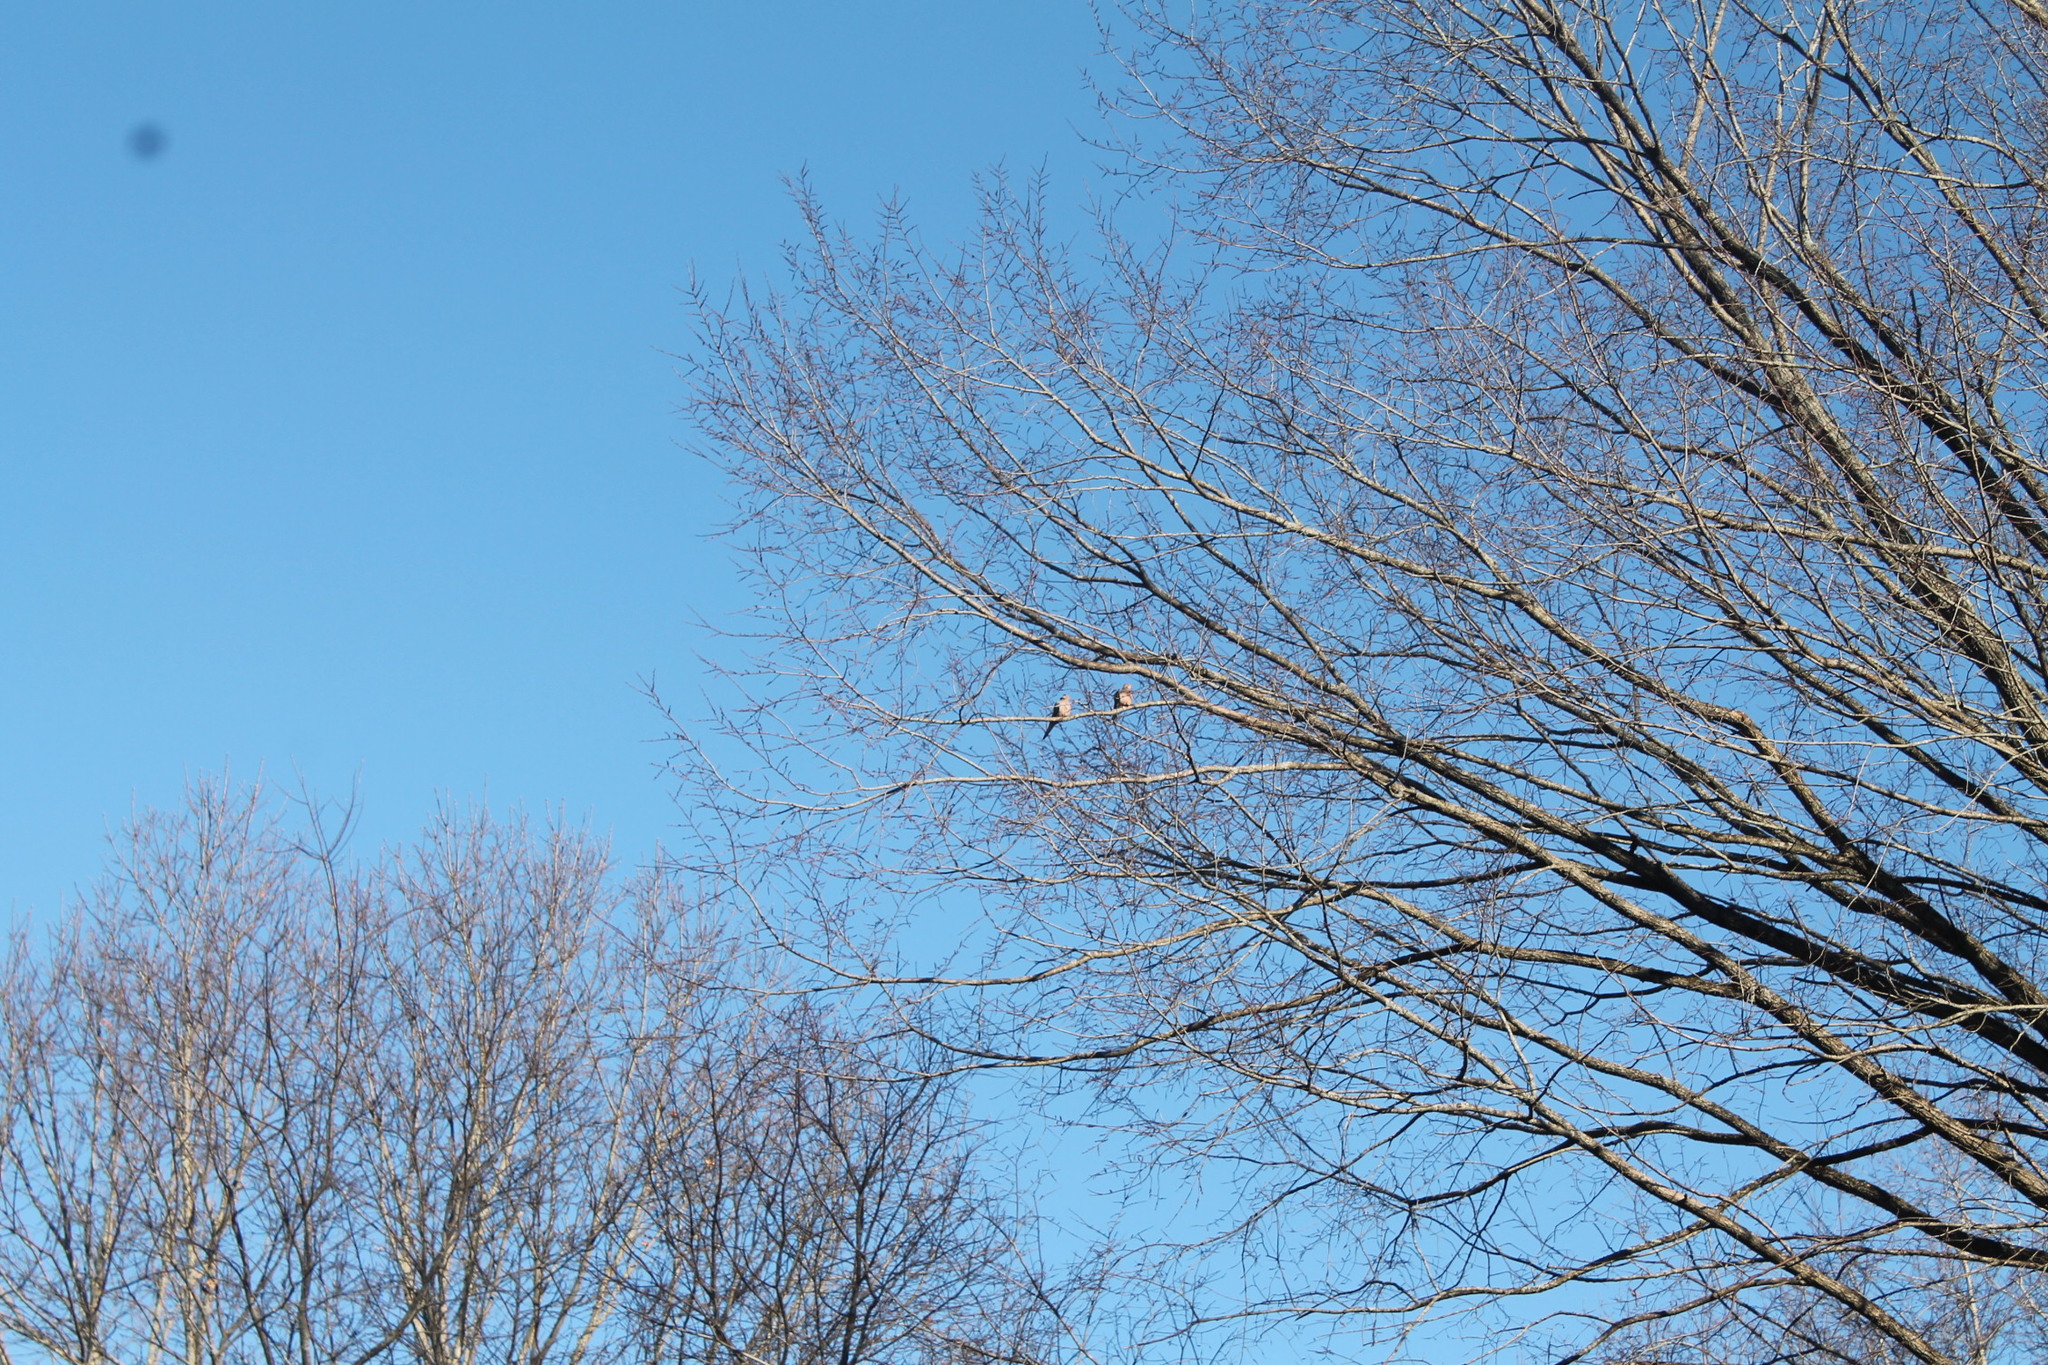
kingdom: Animalia
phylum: Chordata
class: Aves
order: Columbiformes
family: Columbidae
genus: Zenaida
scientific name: Zenaida macroura
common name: Mourning dove
